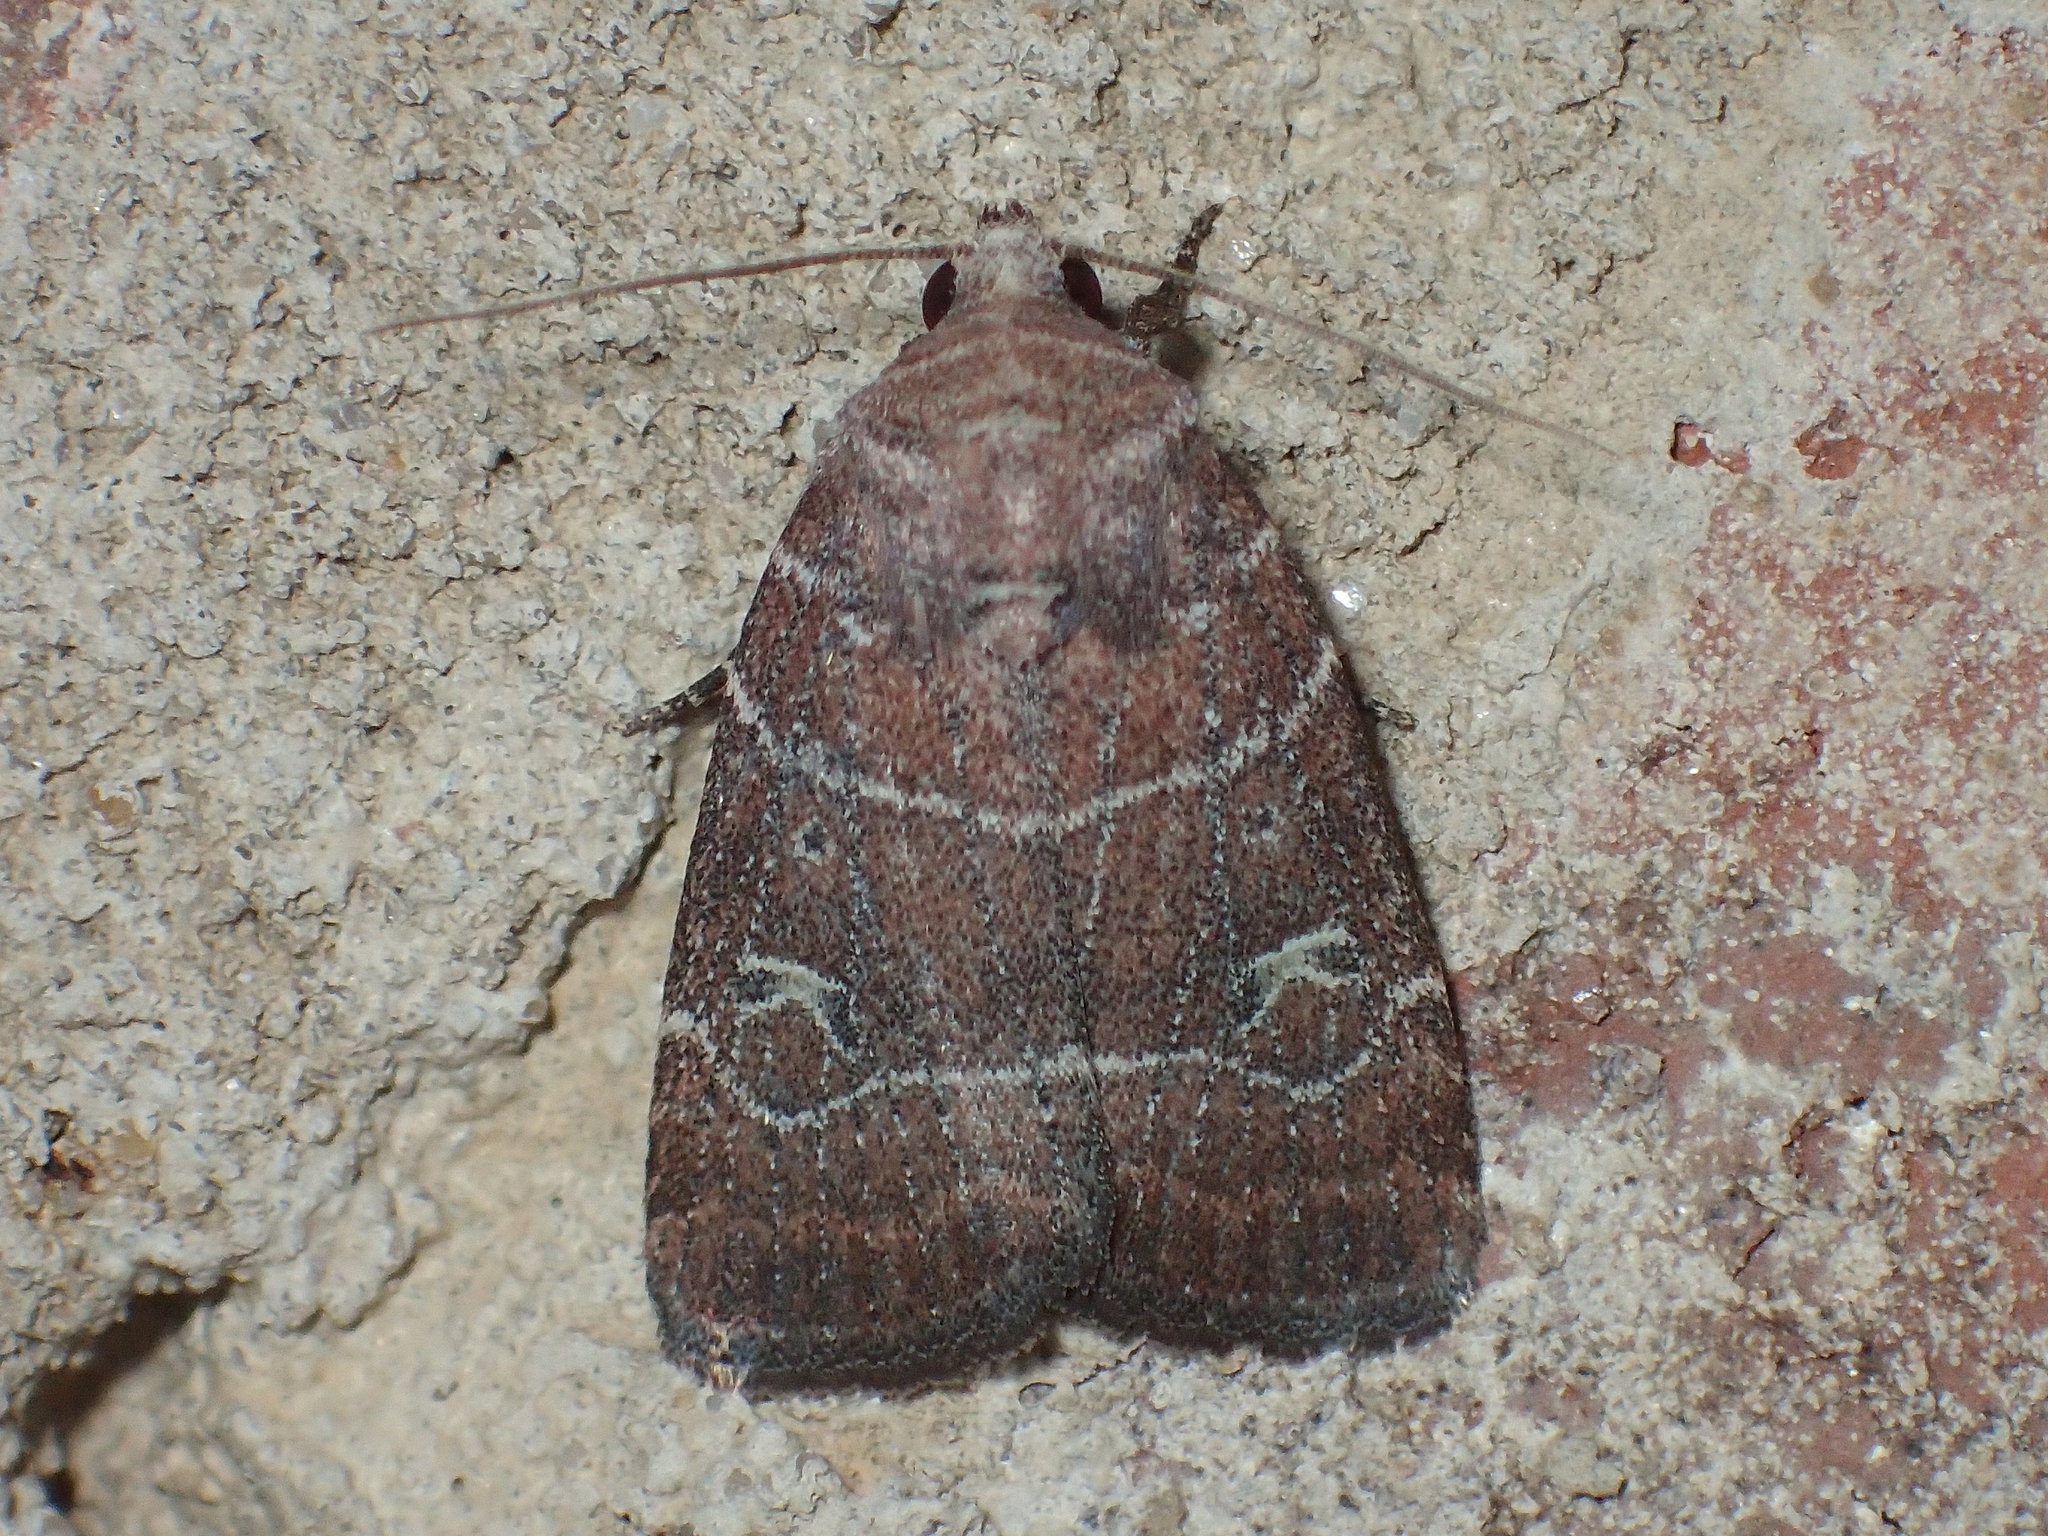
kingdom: Animalia
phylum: Arthropoda
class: Insecta
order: Lepidoptera
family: Noctuidae
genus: Elaphria
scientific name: Elaphria grata
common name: Grateful midget moth
